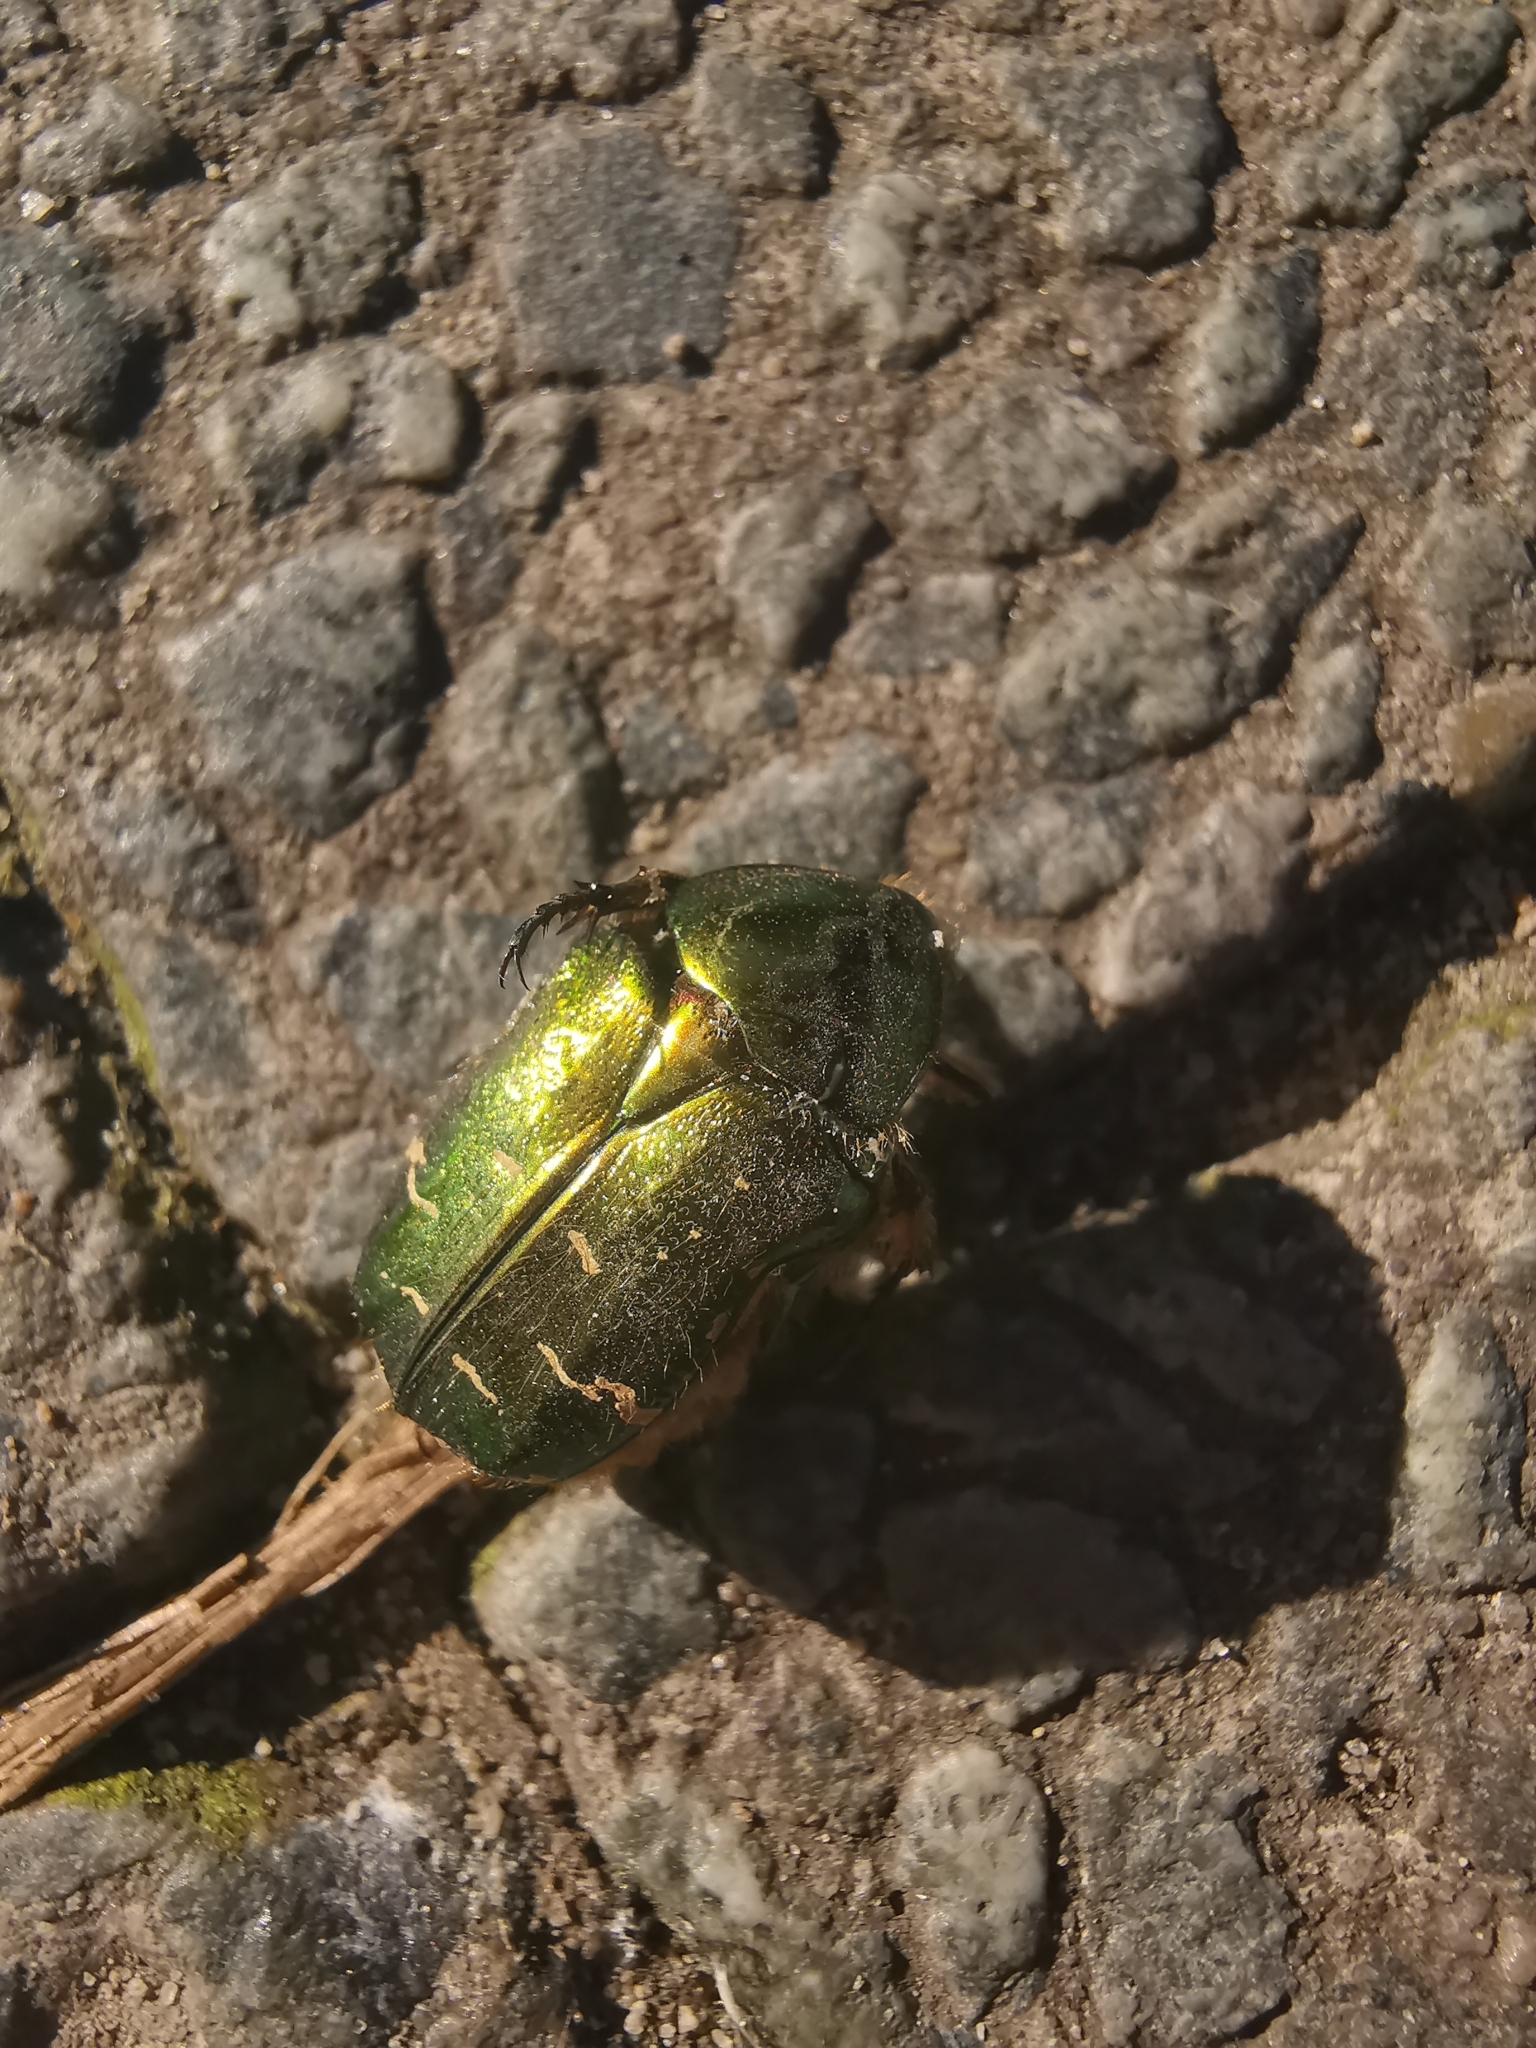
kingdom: Animalia
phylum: Arthropoda
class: Insecta
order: Coleoptera
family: Scarabaeidae
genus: Cetonia
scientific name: Cetonia aurata
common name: Rose chafer
